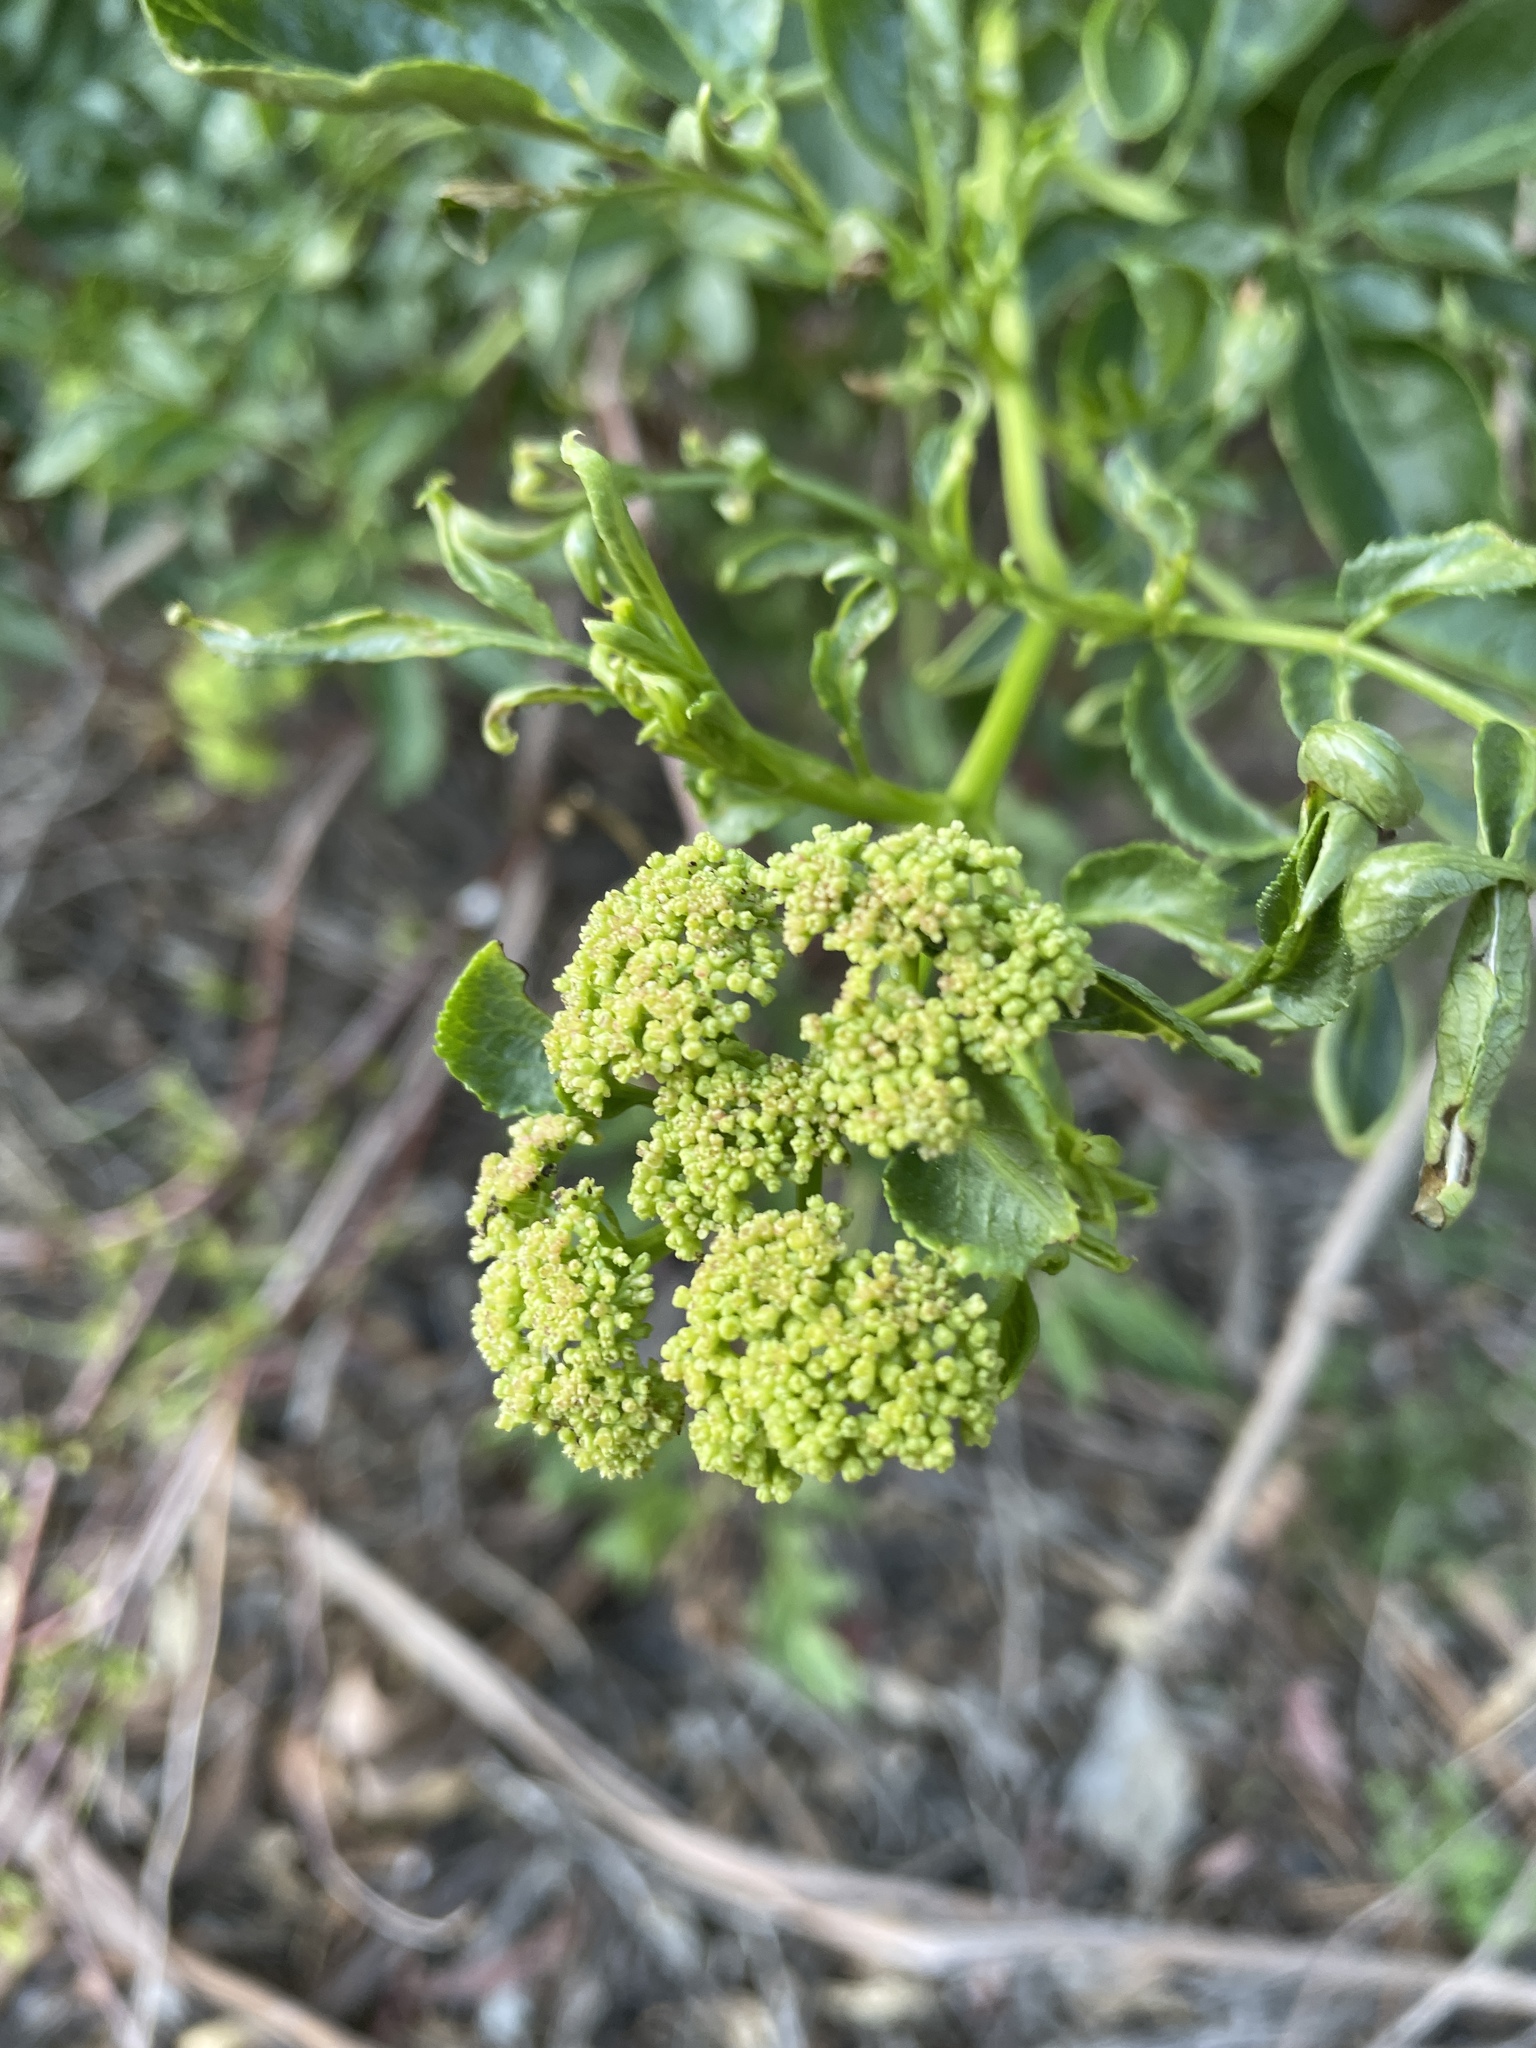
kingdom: Plantae
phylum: Tracheophyta
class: Magnoliopsida
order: Dipsacales
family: Viburnaceae
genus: Sambucus
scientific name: Sambucus cerulea
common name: Blue elder
